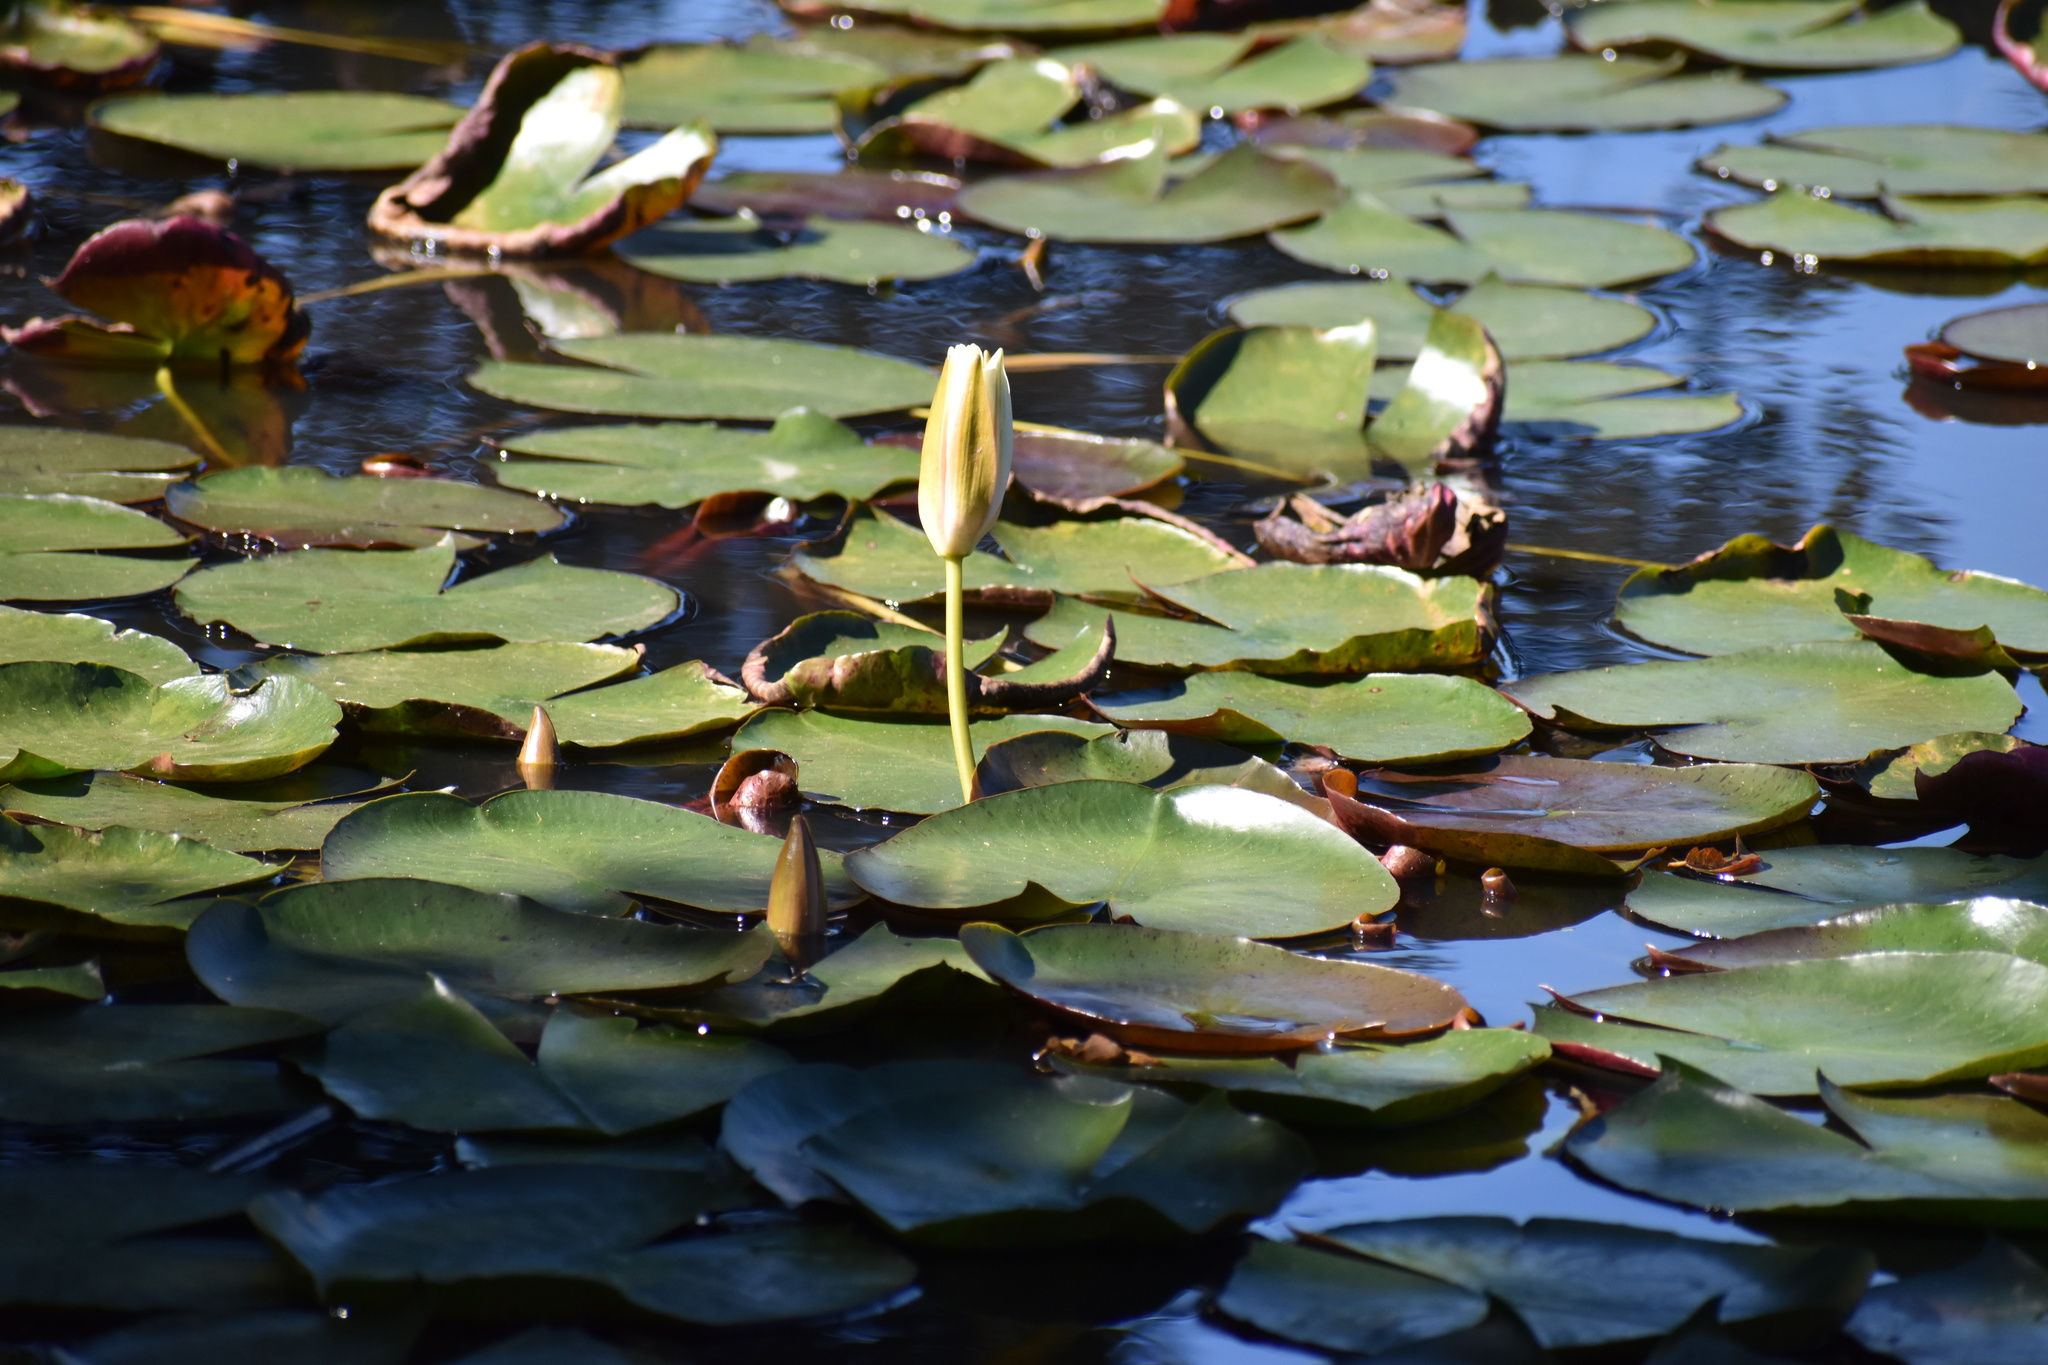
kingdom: Plantae
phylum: Tracheophyta
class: Magnoliopsida
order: Nymphaeales
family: Nymphaeaceae
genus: Nymphaea
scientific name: Nymphaea nouchali
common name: Blue lotus
